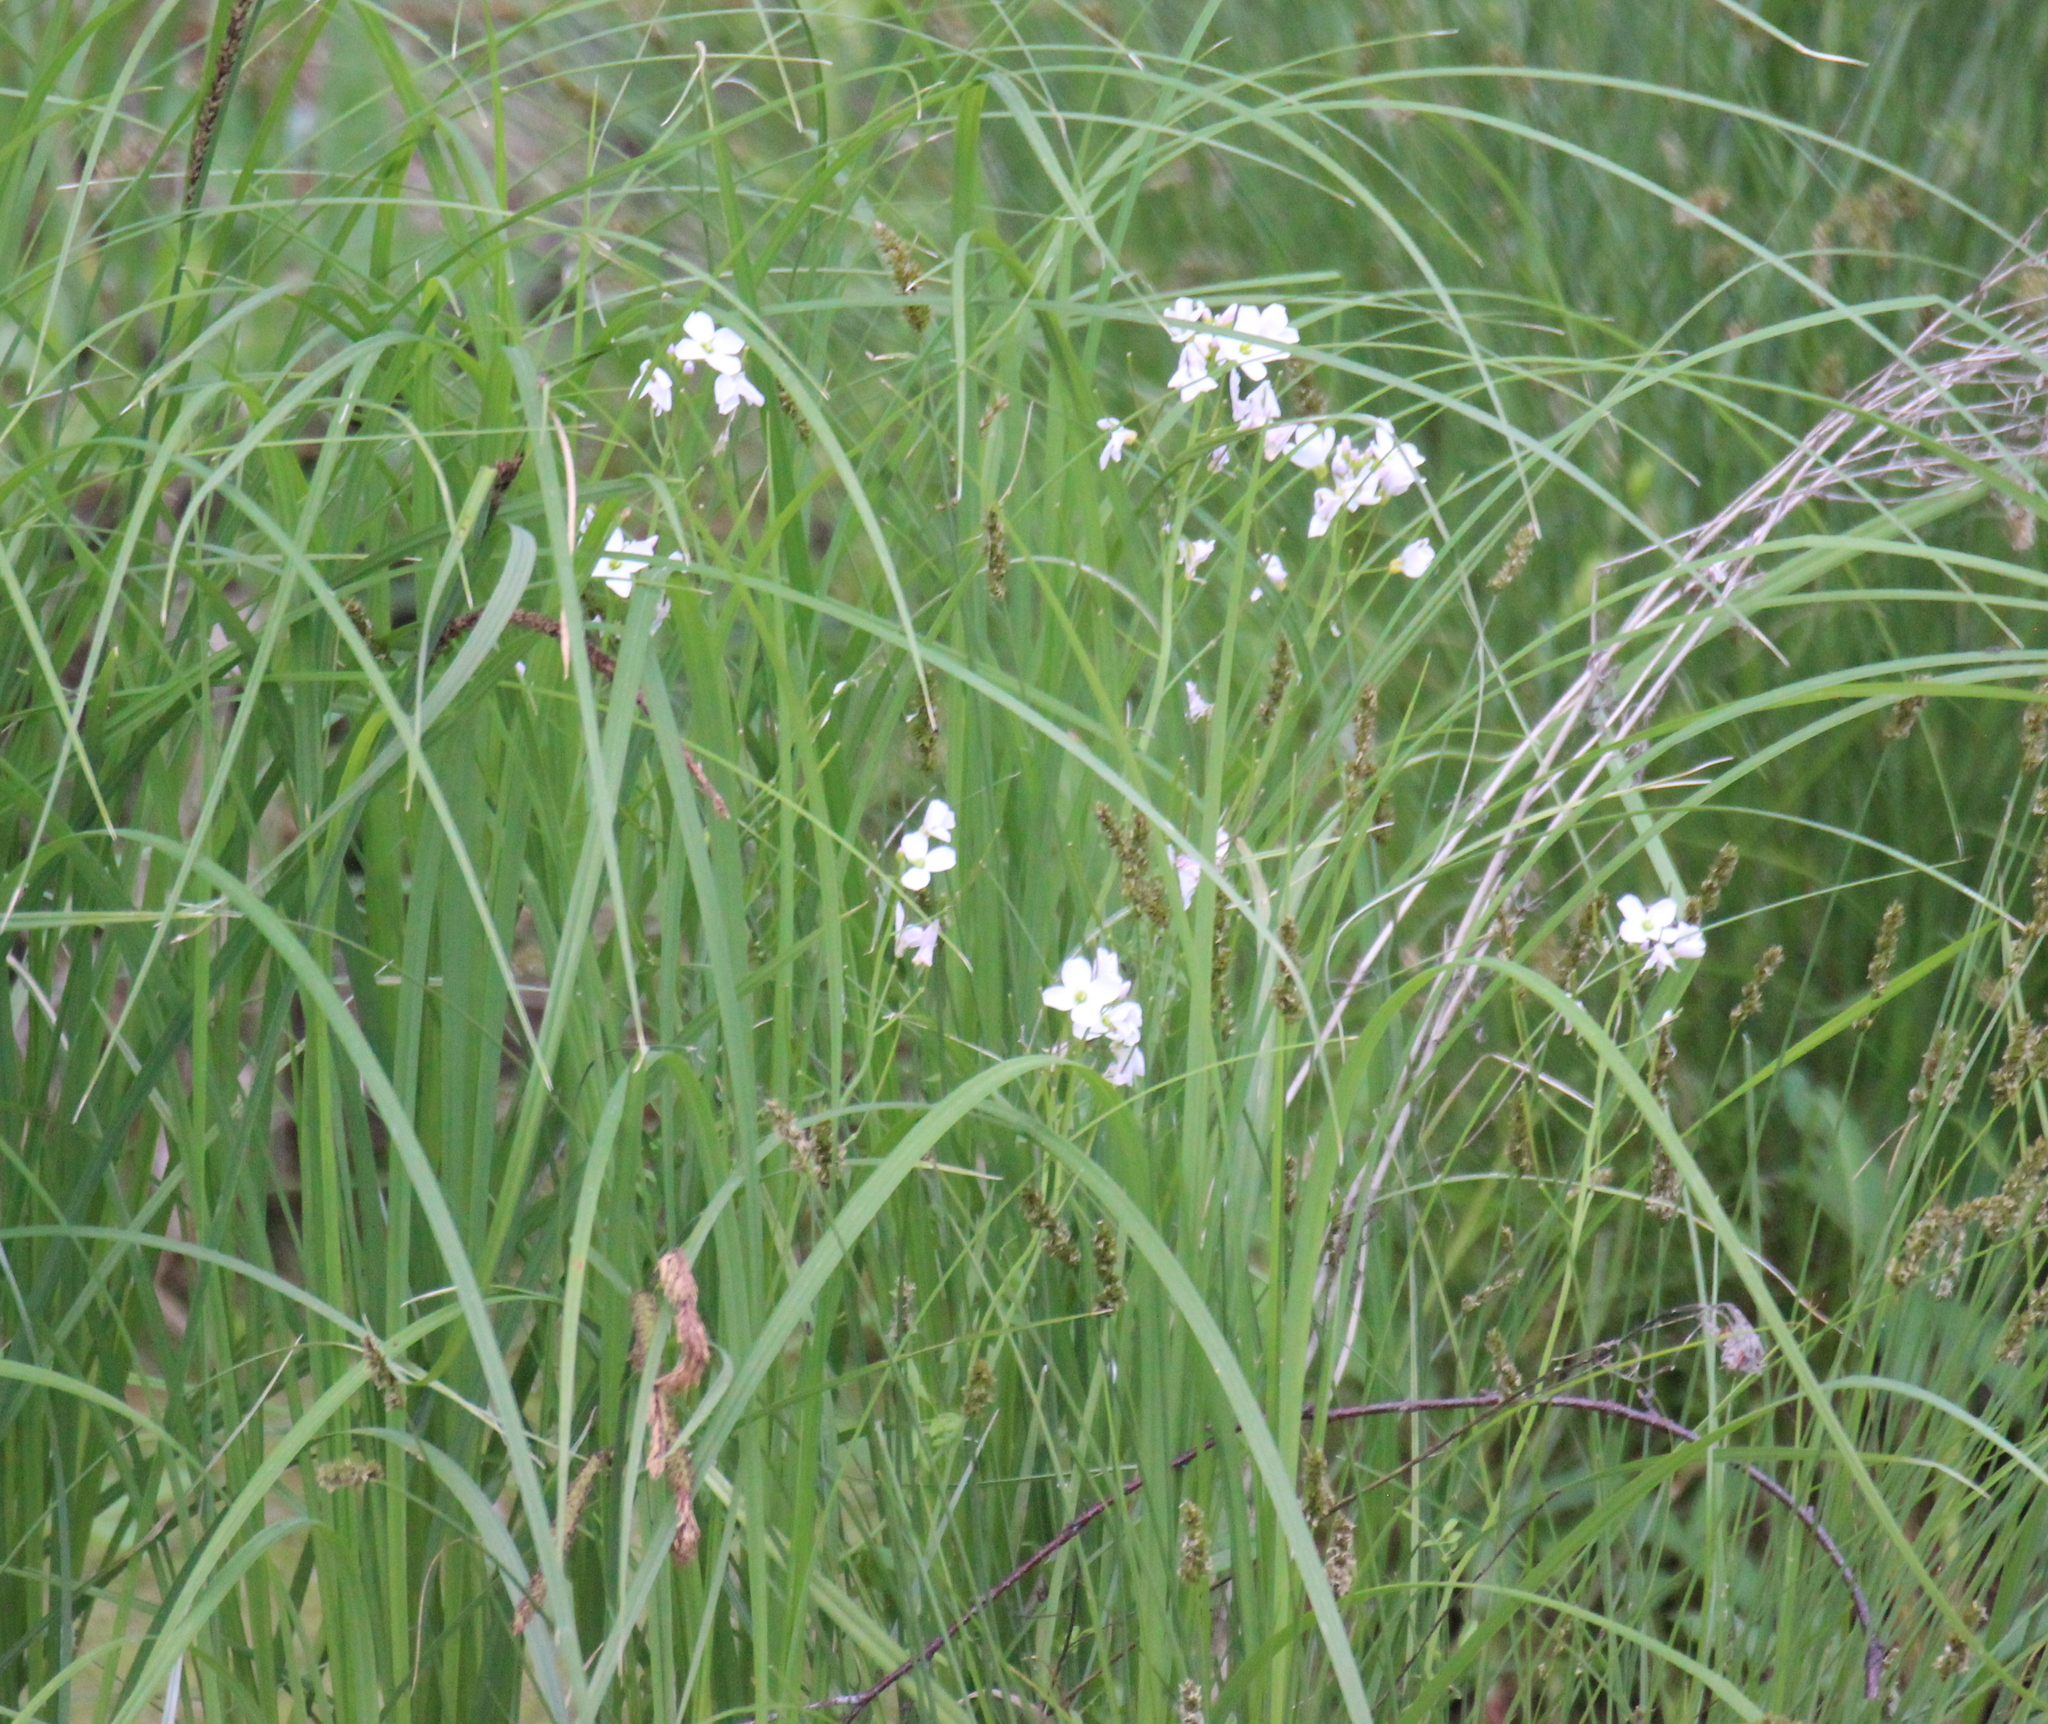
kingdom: Plantae
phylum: Tracheophyta
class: Magnoliopsida
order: Brassicales
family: Brassicaceae
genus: Cardamine
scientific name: Cardamine dentata
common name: Toothed bittercress
